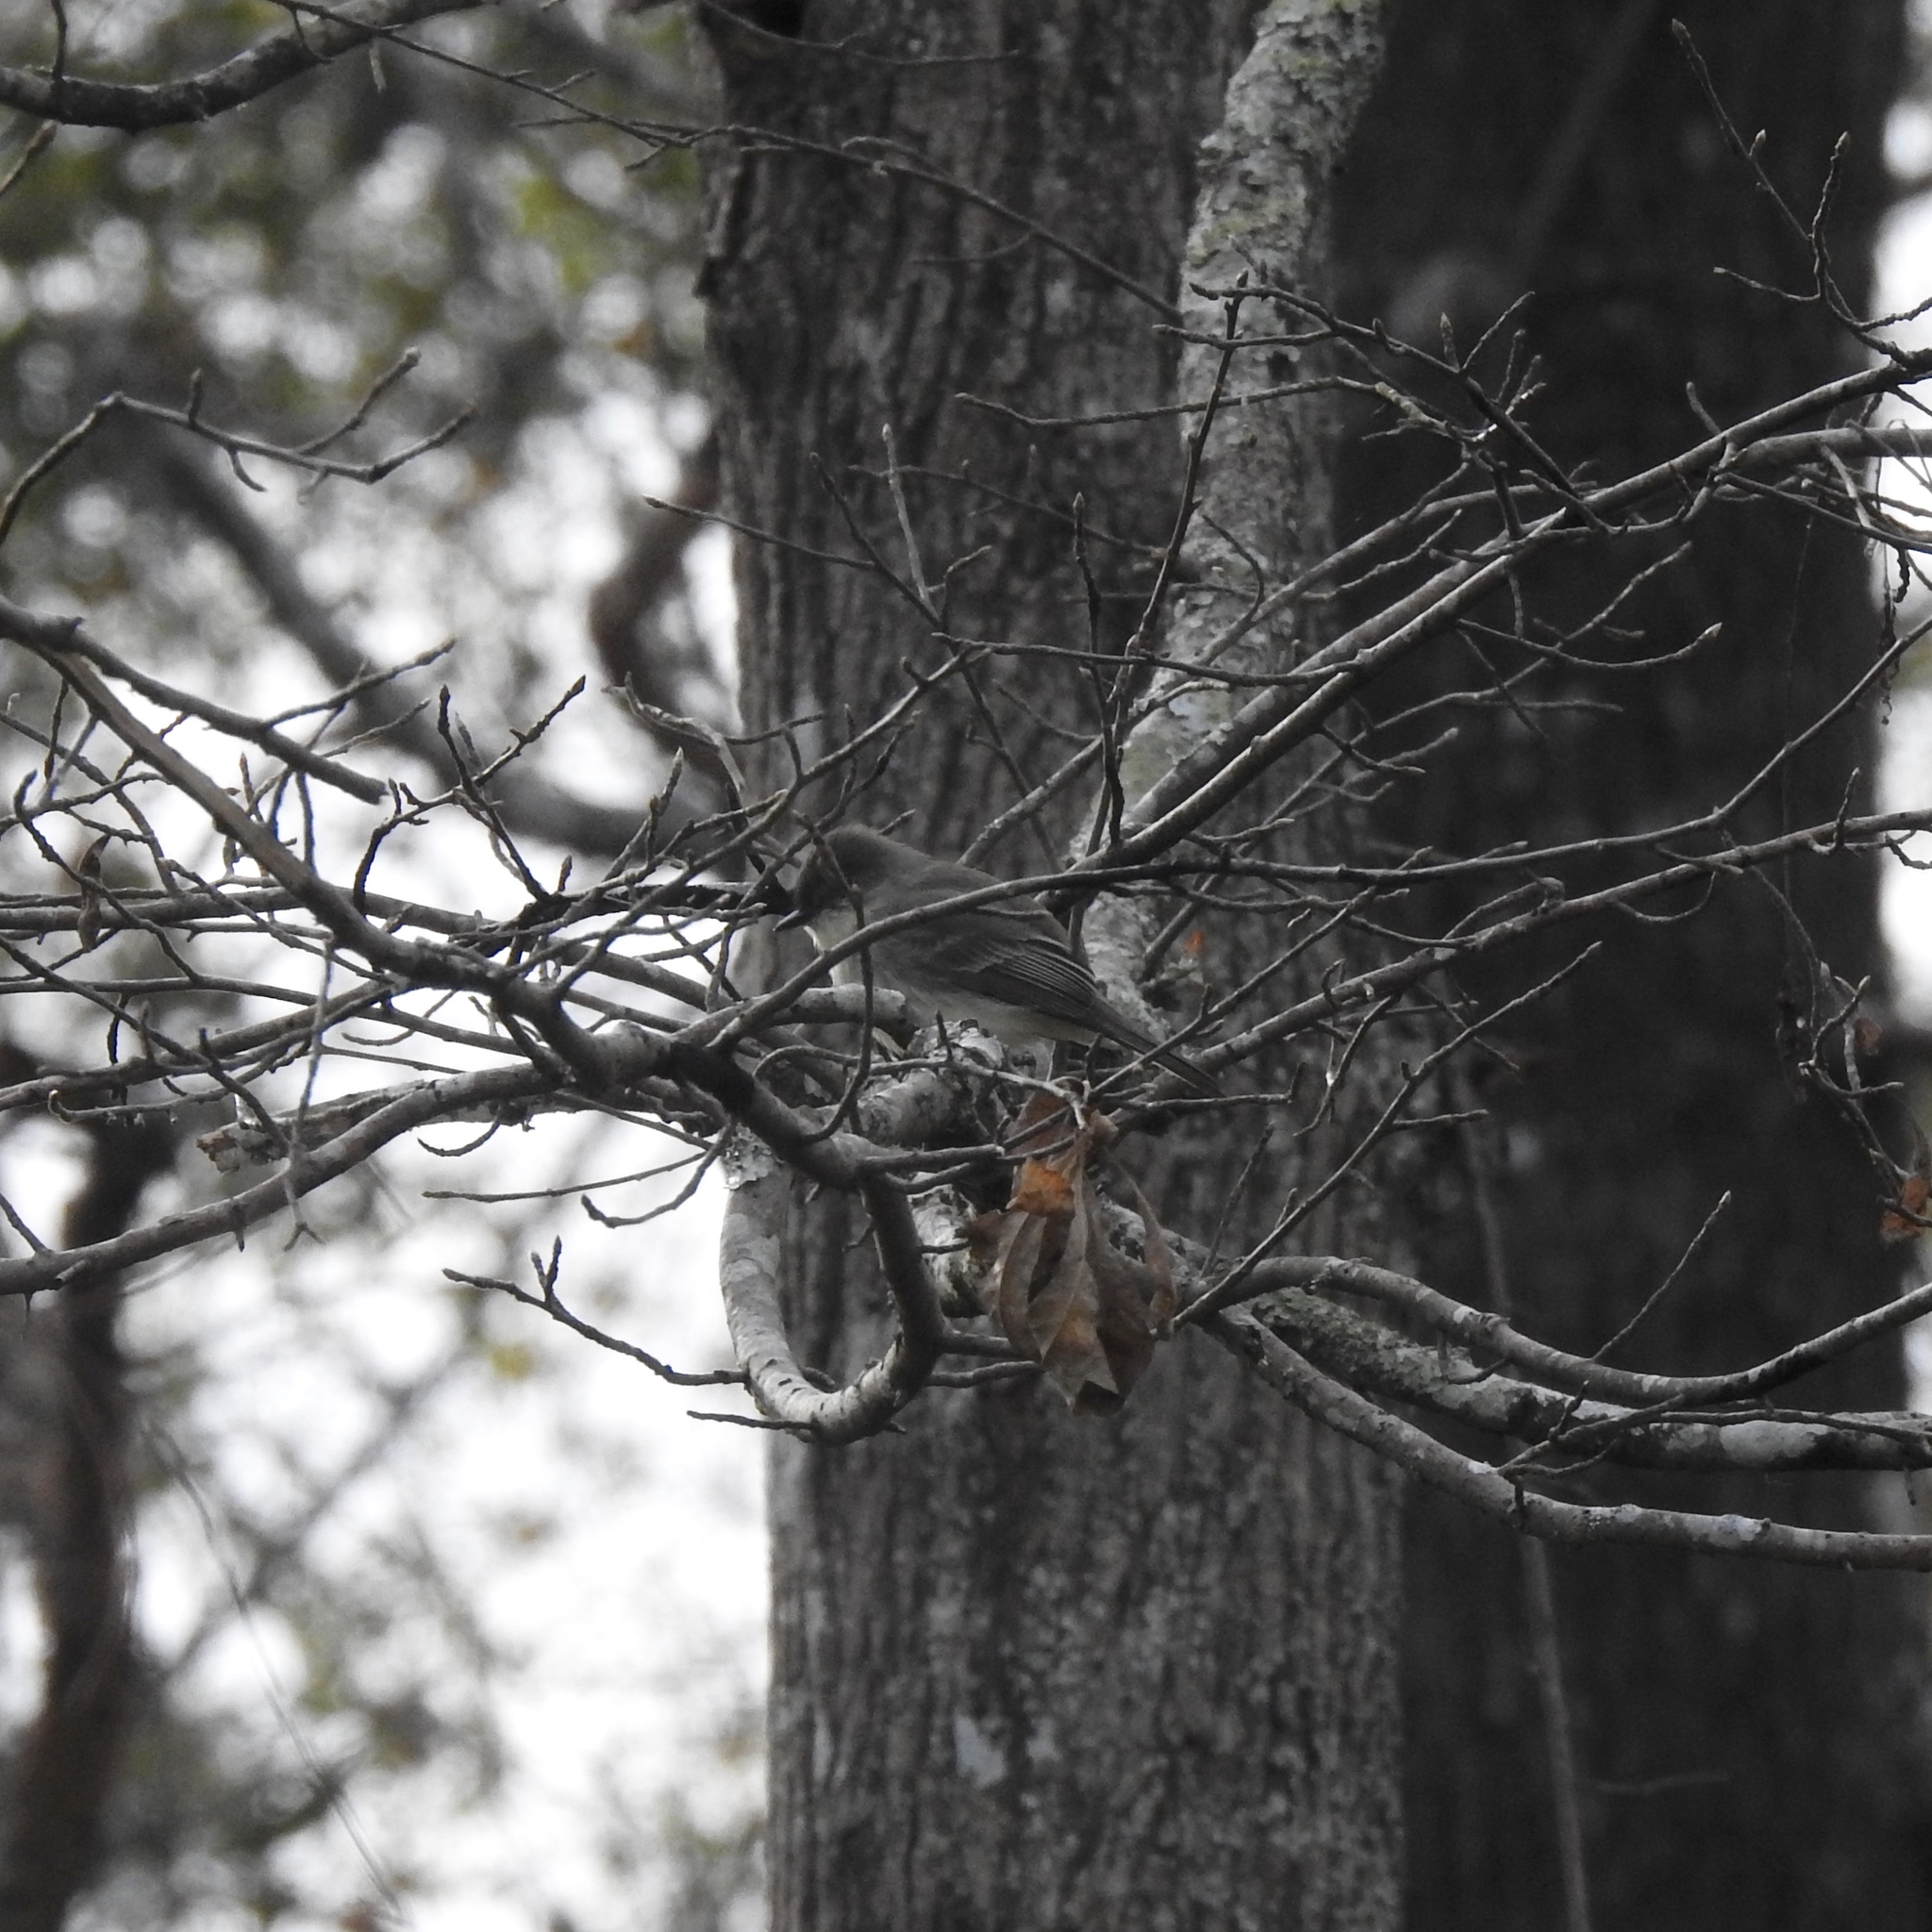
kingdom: Animalia
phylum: Chordata
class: Aves
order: Passeriformes
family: Tyrannidae
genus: Sayornis
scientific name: Sayornis phoebe
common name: Eastern phoebe
